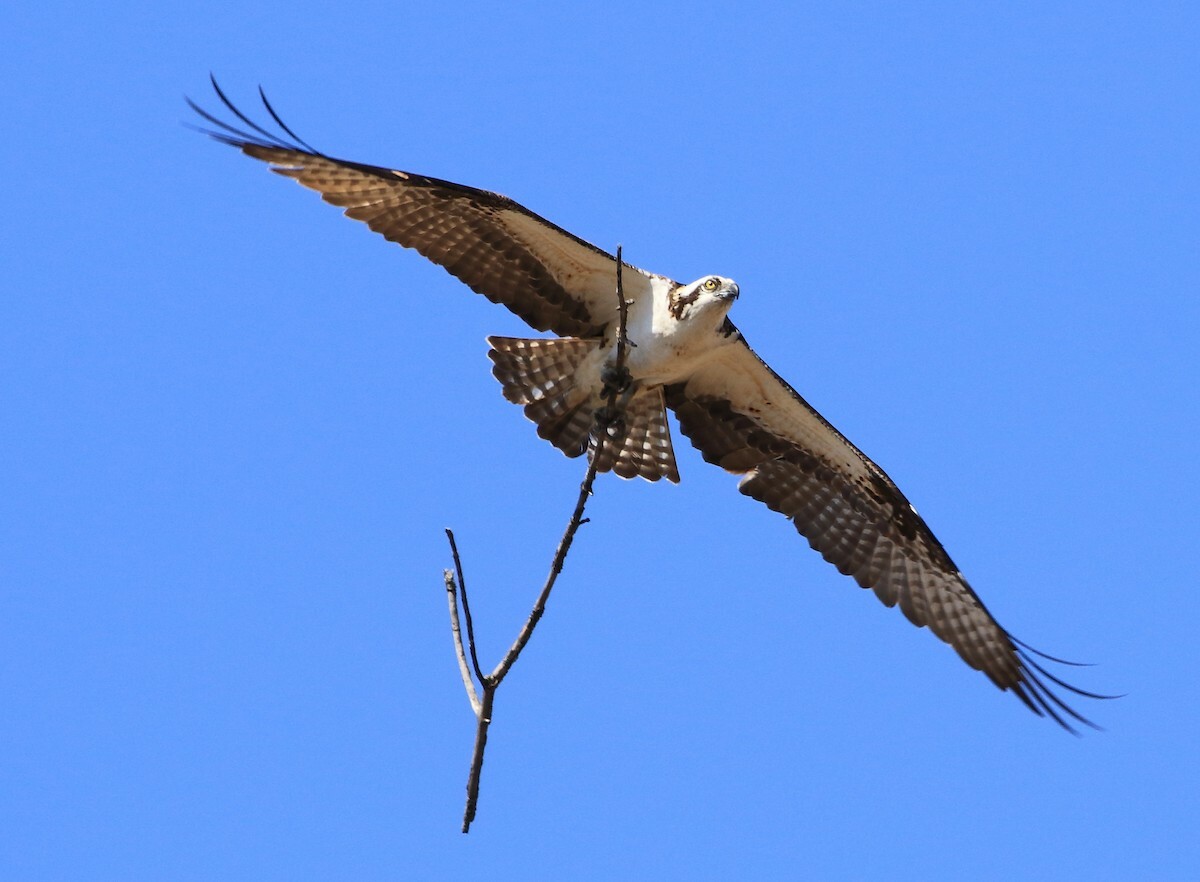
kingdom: Animalia
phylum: Chordata
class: Aves
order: Accipitriformes
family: Pandionidae
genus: Pandion
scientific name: Pandion haliaetus
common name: Osprey
